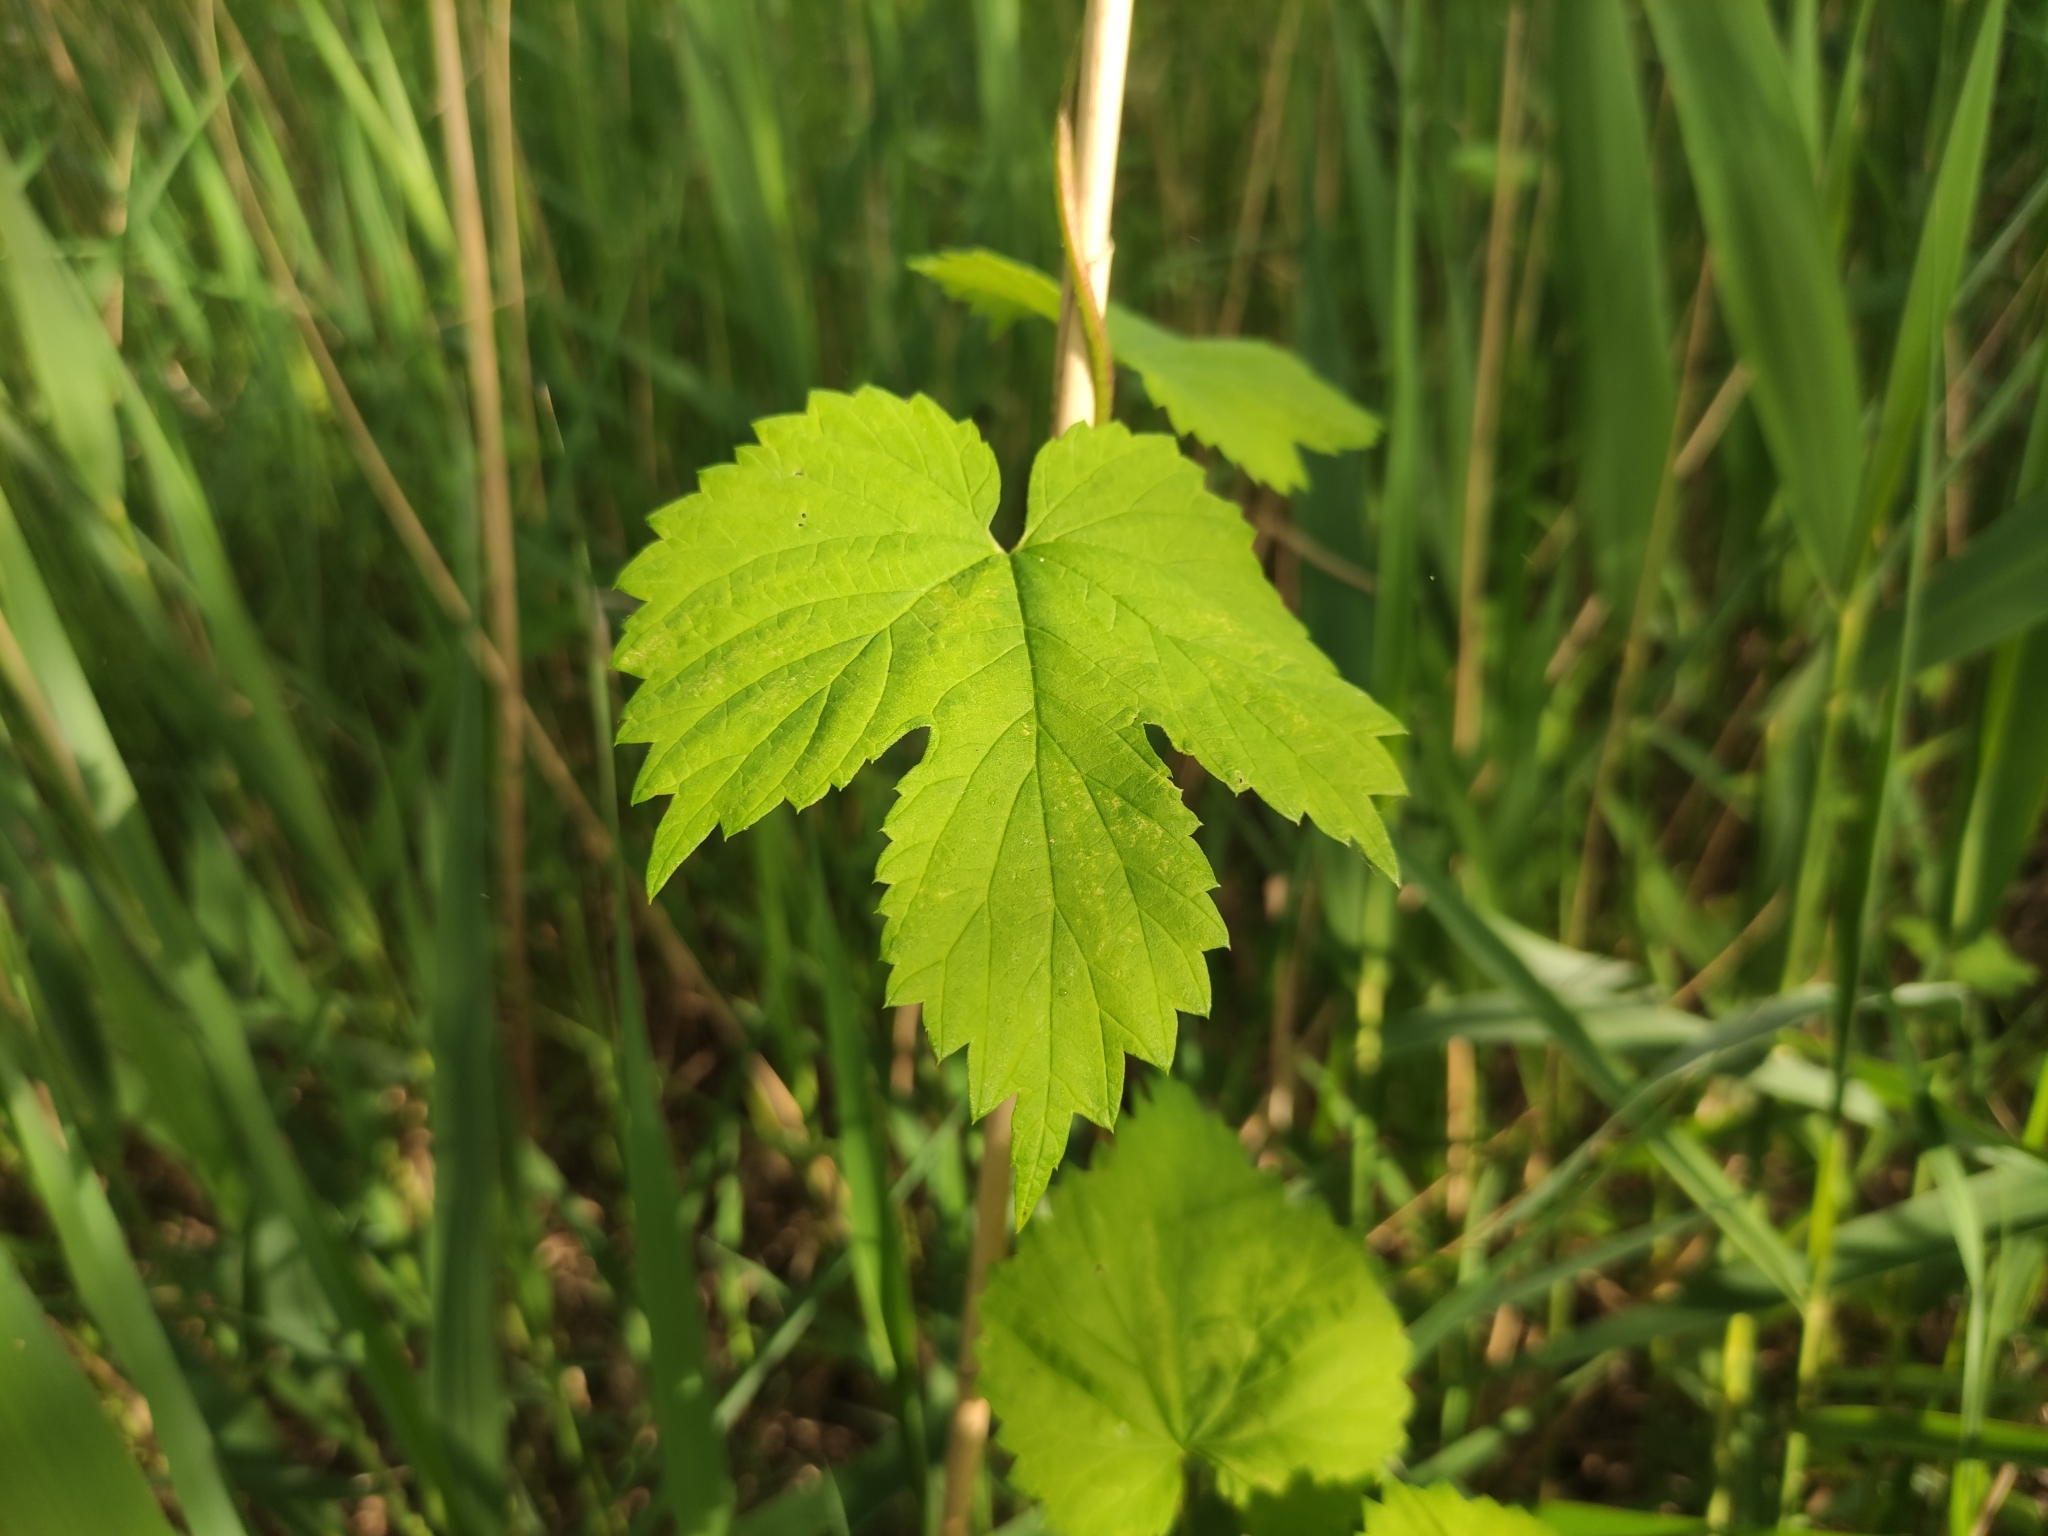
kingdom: Plantae
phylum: Tracheophyta
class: Magnoliopsida
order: Rosales
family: Cannabaceae
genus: Humulus
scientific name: Humulus lupulus
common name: Hop
